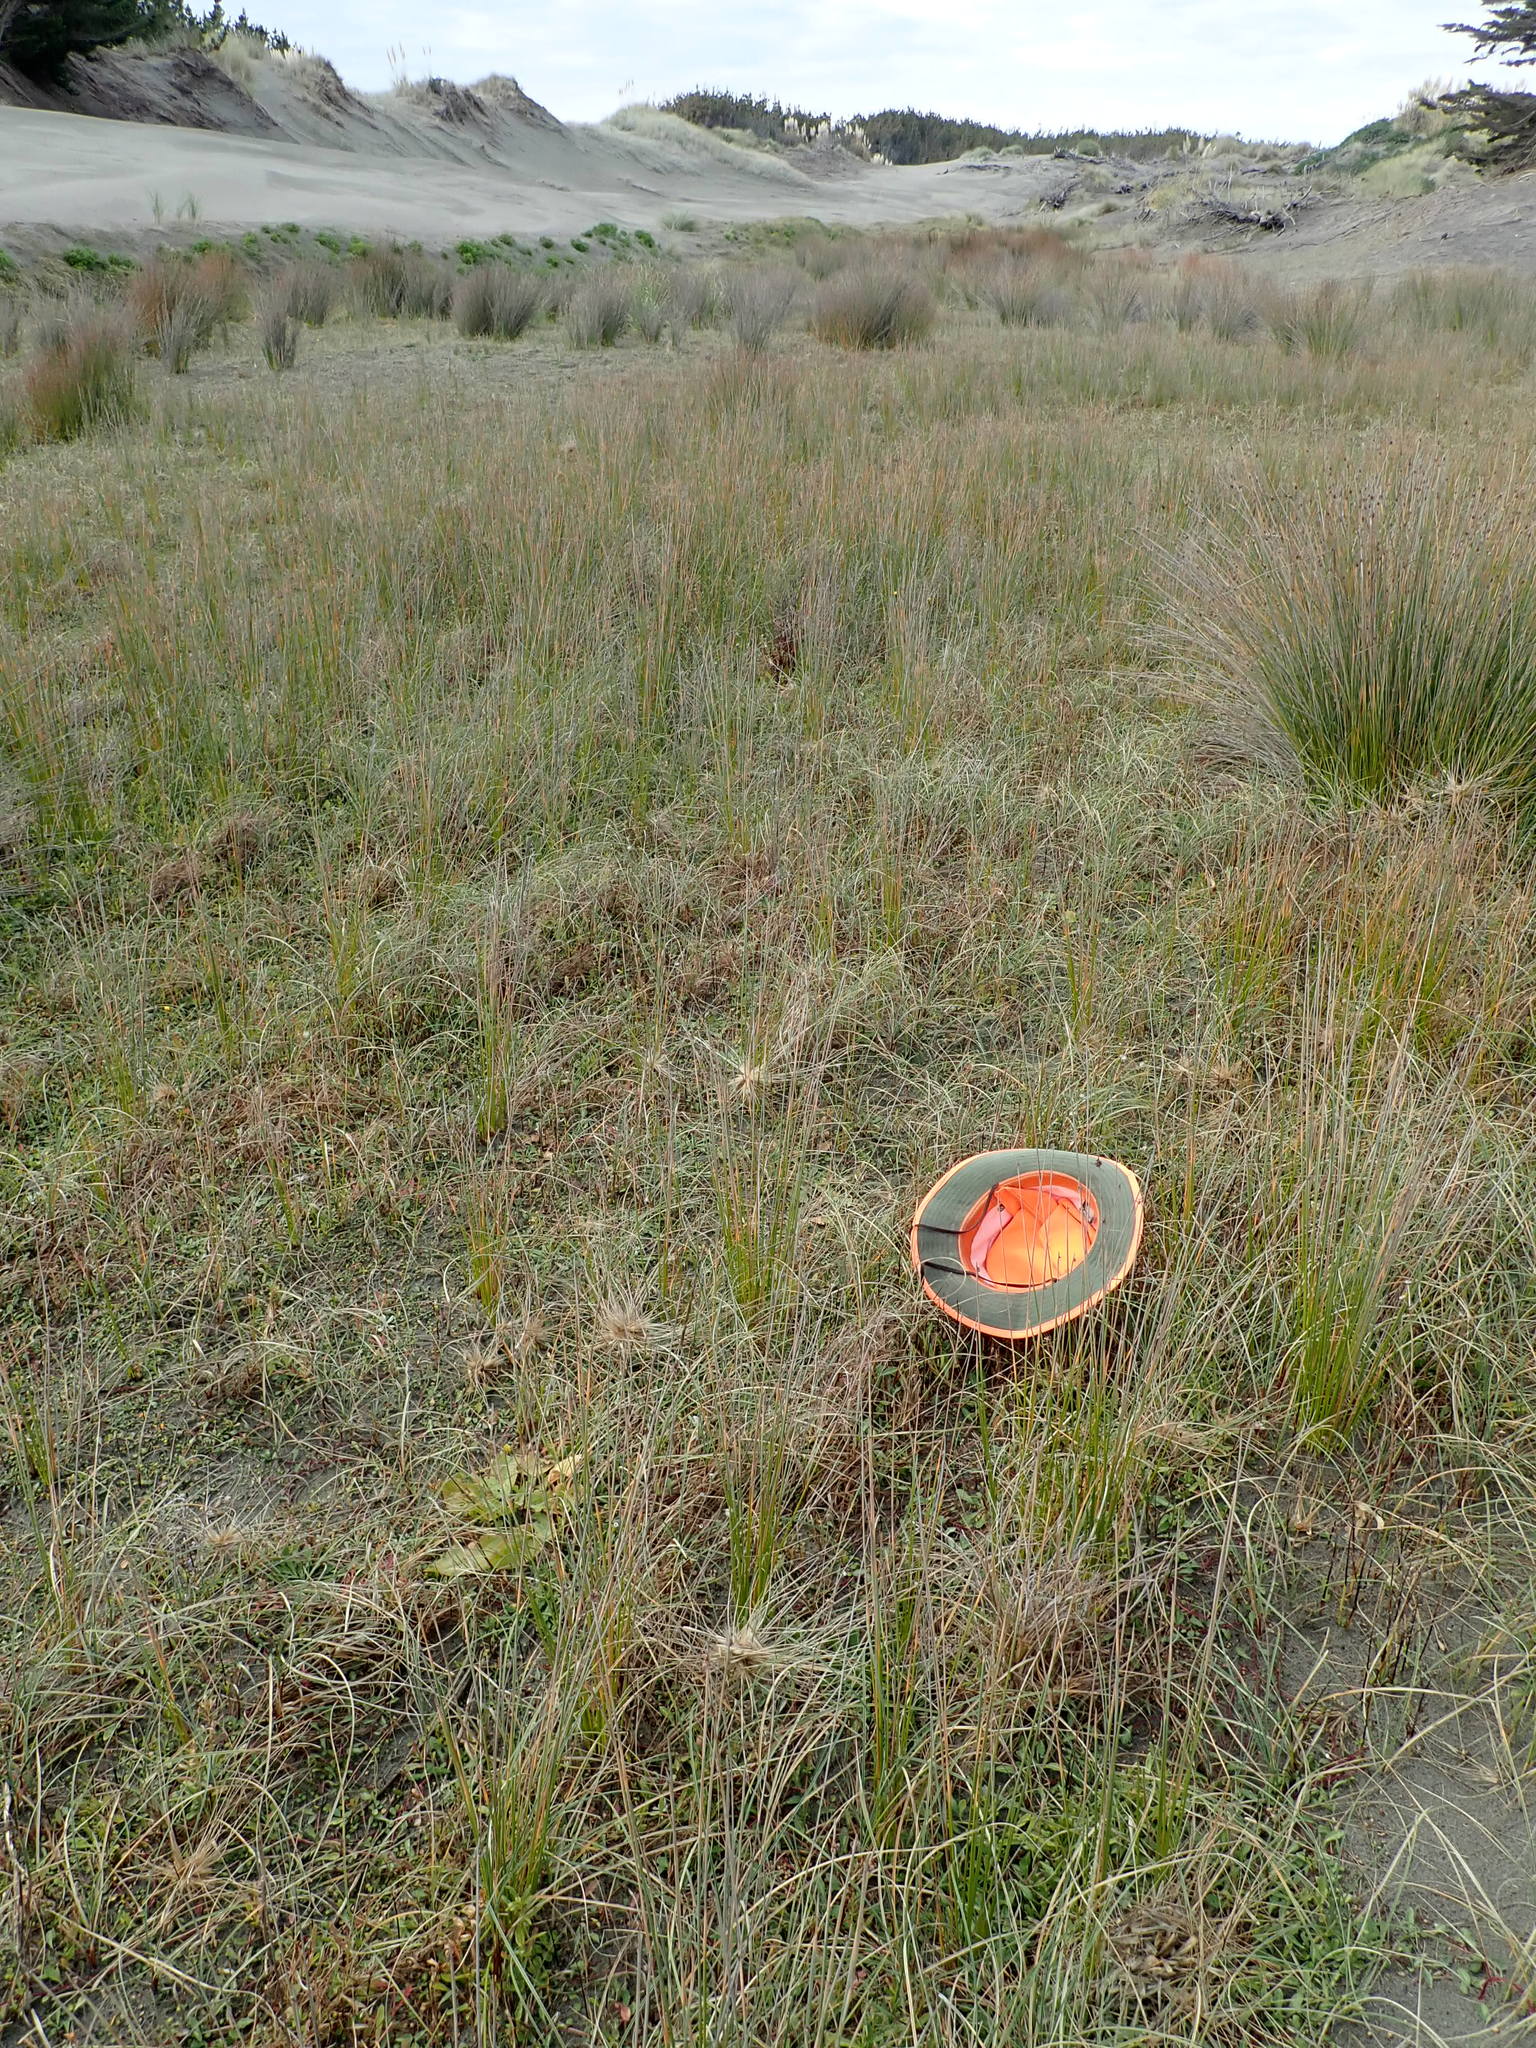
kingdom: Plantae
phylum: Tracheophyta
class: Magnoliopsida
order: Myrtales
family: Onagraceae
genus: Epilobium
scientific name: Epilobium billardiereanum
